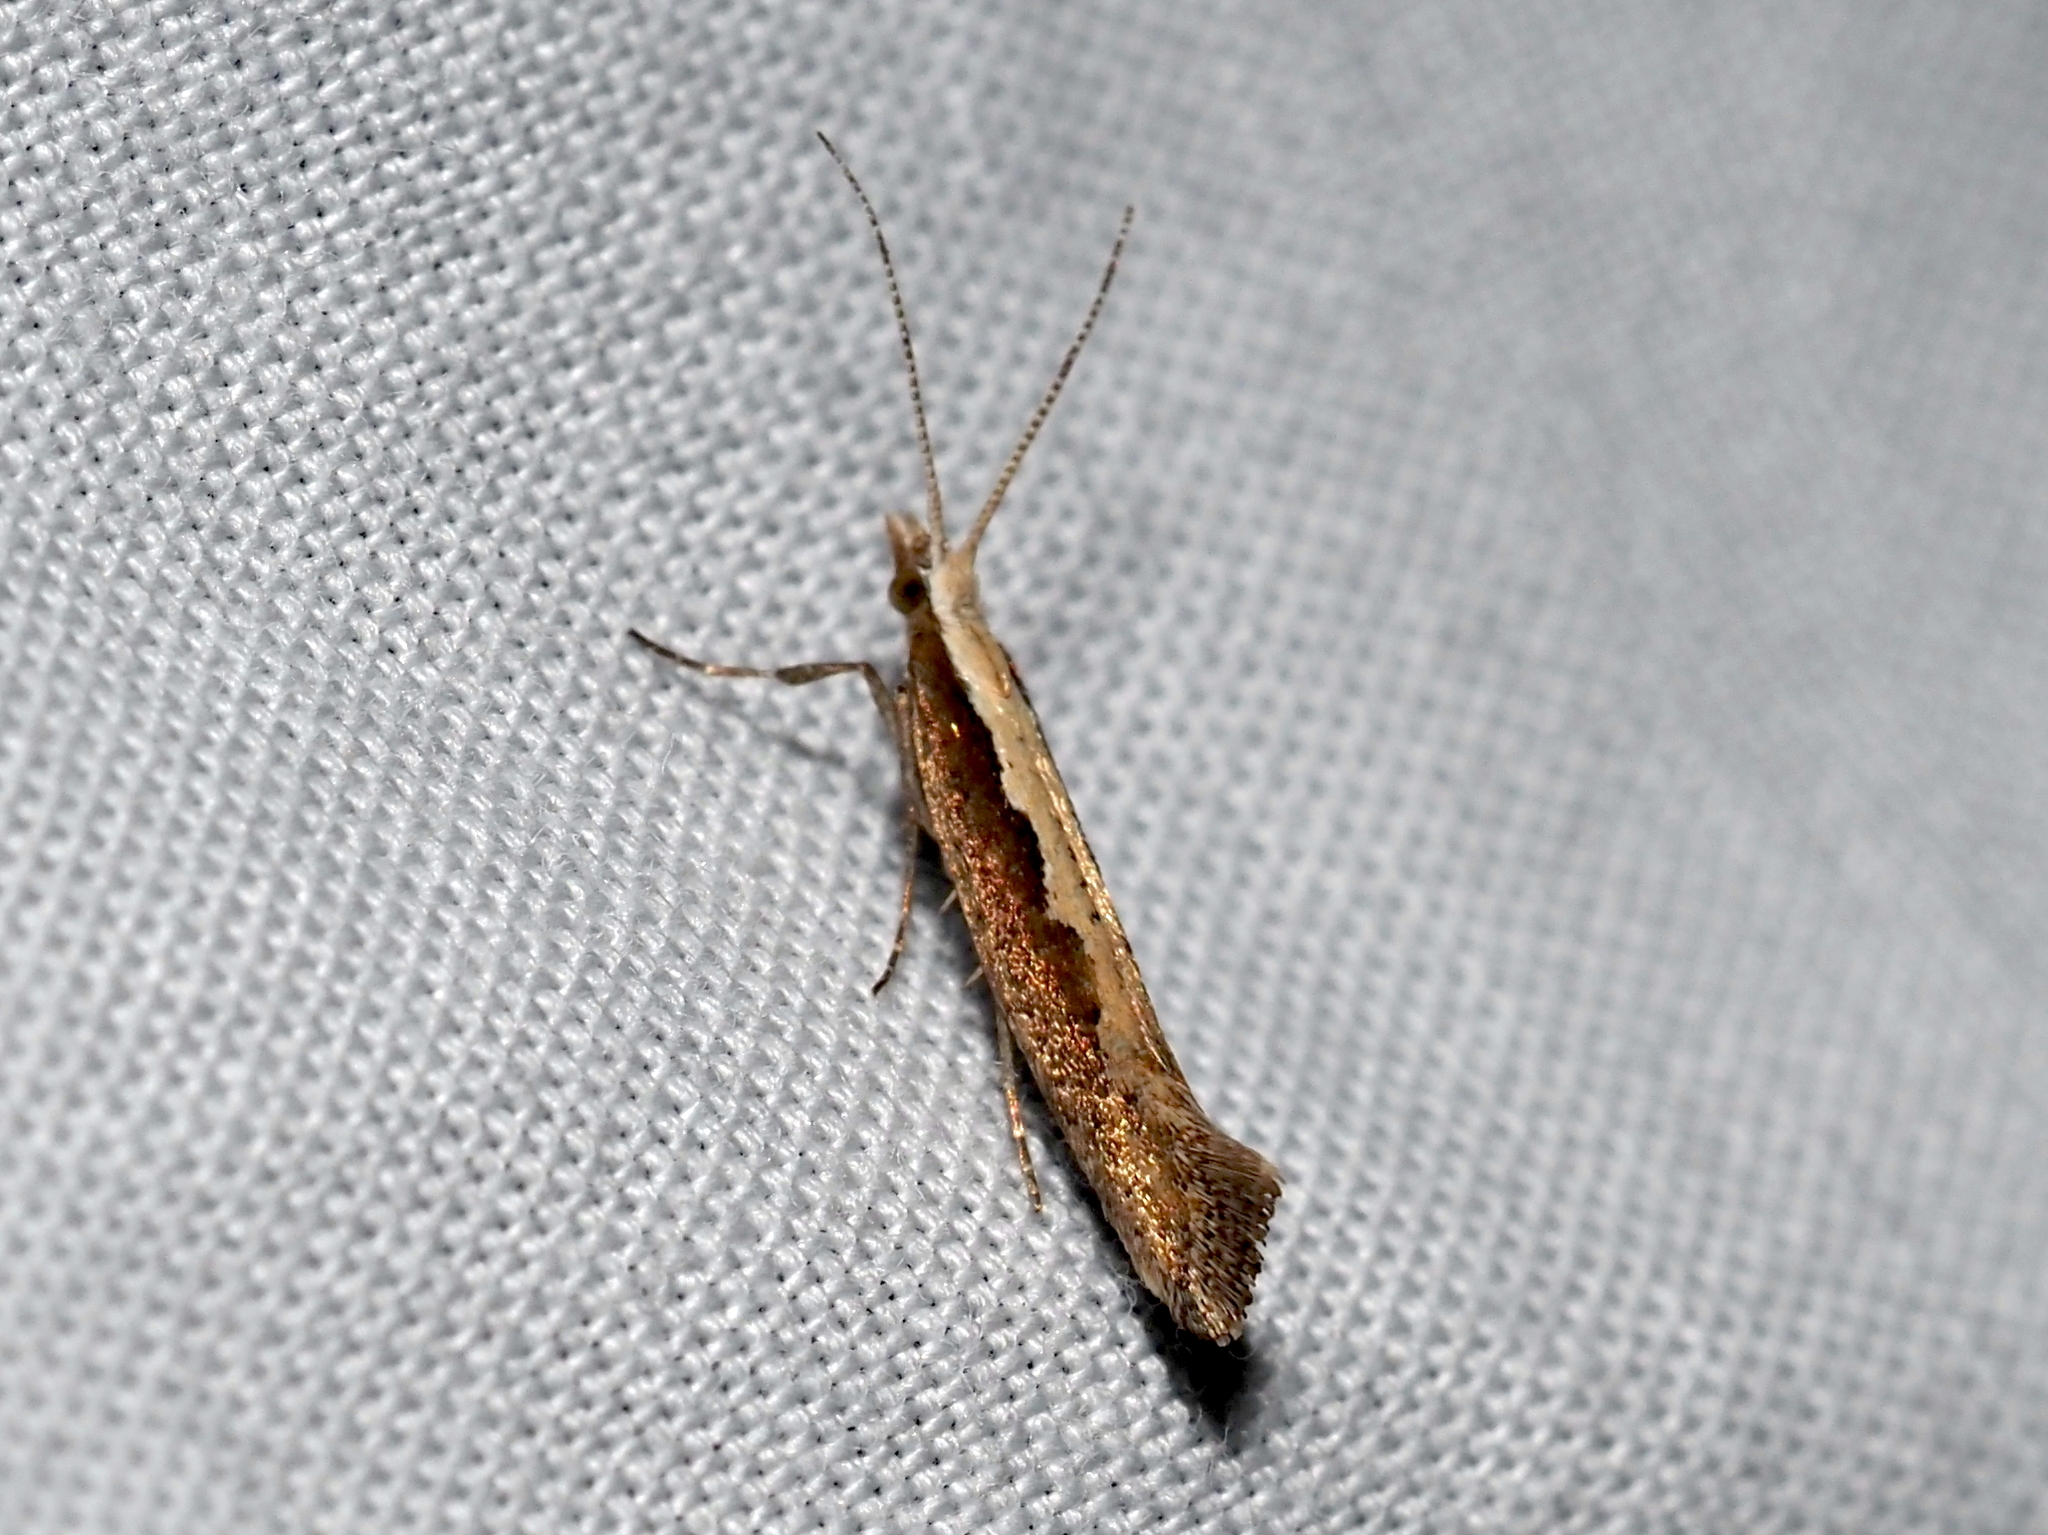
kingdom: Animalia
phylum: Arthropoda
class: Insecta
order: Lepidoptera
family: Plutellidae
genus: Plutella
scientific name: Plutella xylostella
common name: Diamond-back moth
